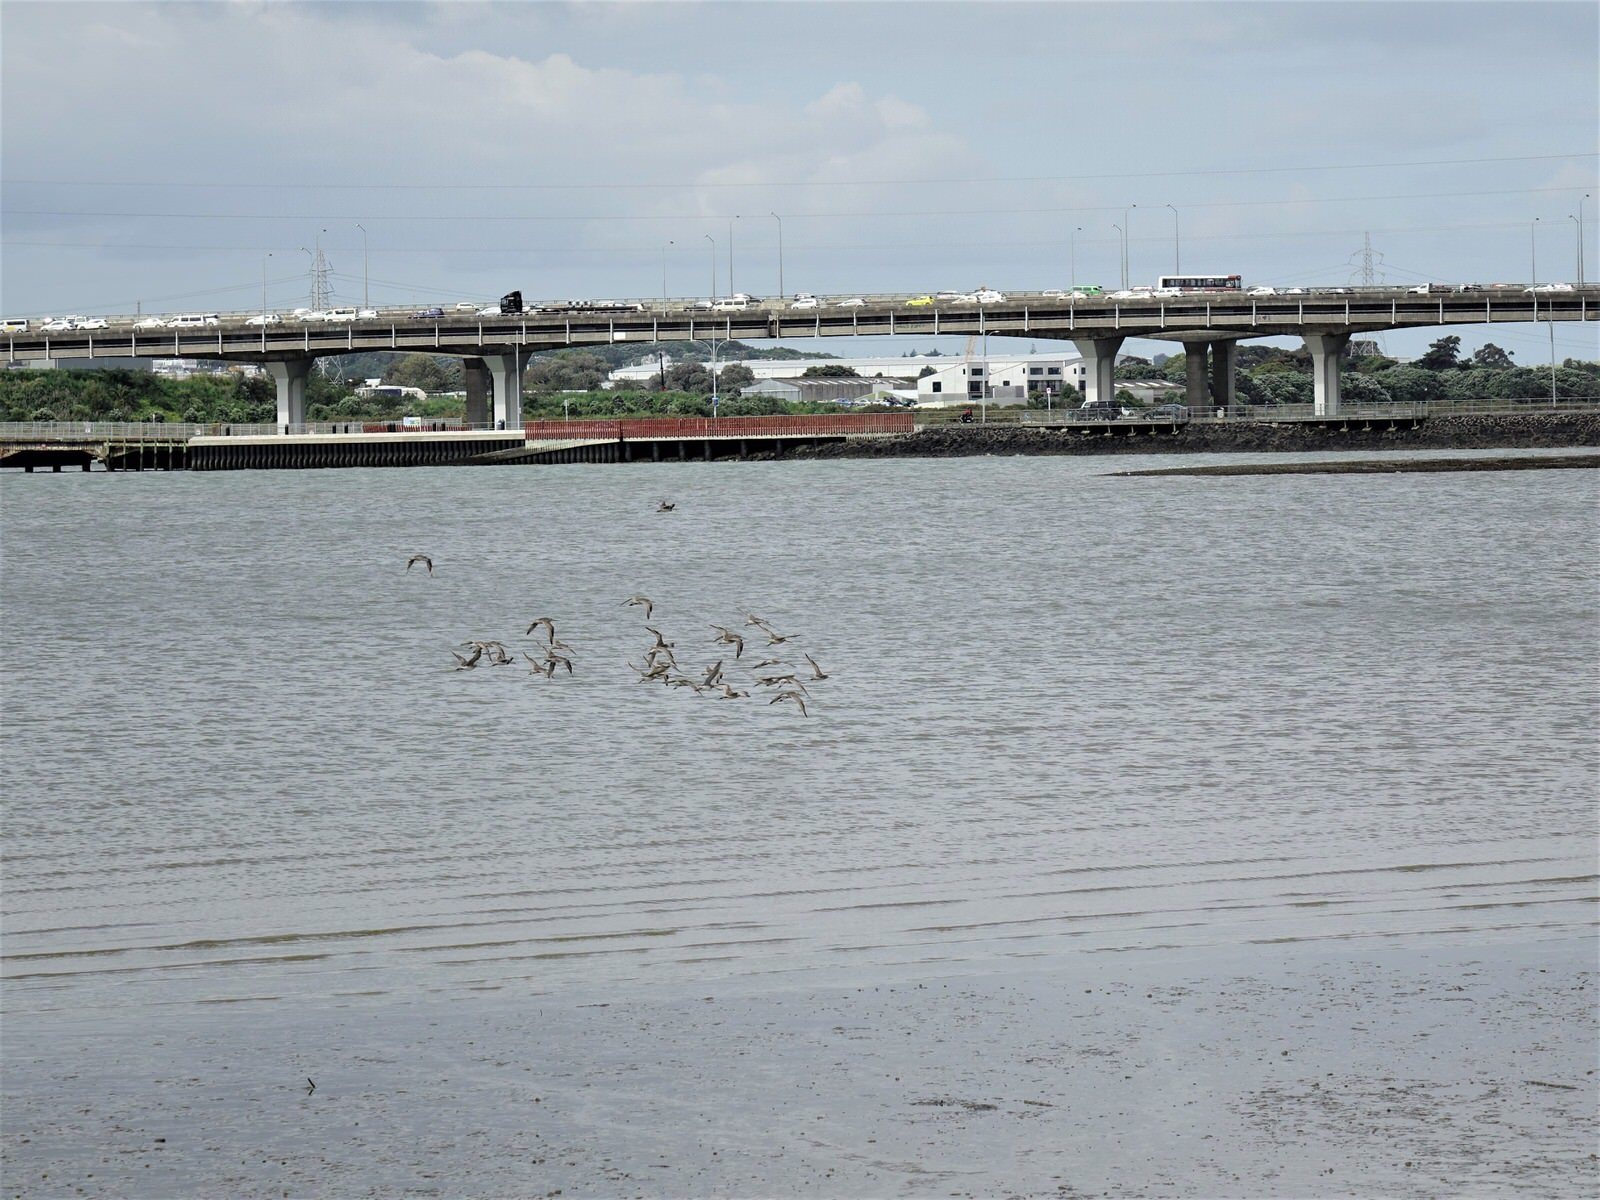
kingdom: Animalia
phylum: Chordata
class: Aves
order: Charadriiformes
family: Scolopacidae
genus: Limosa
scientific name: Limosa lapponica
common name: Bar-tailed godwit
